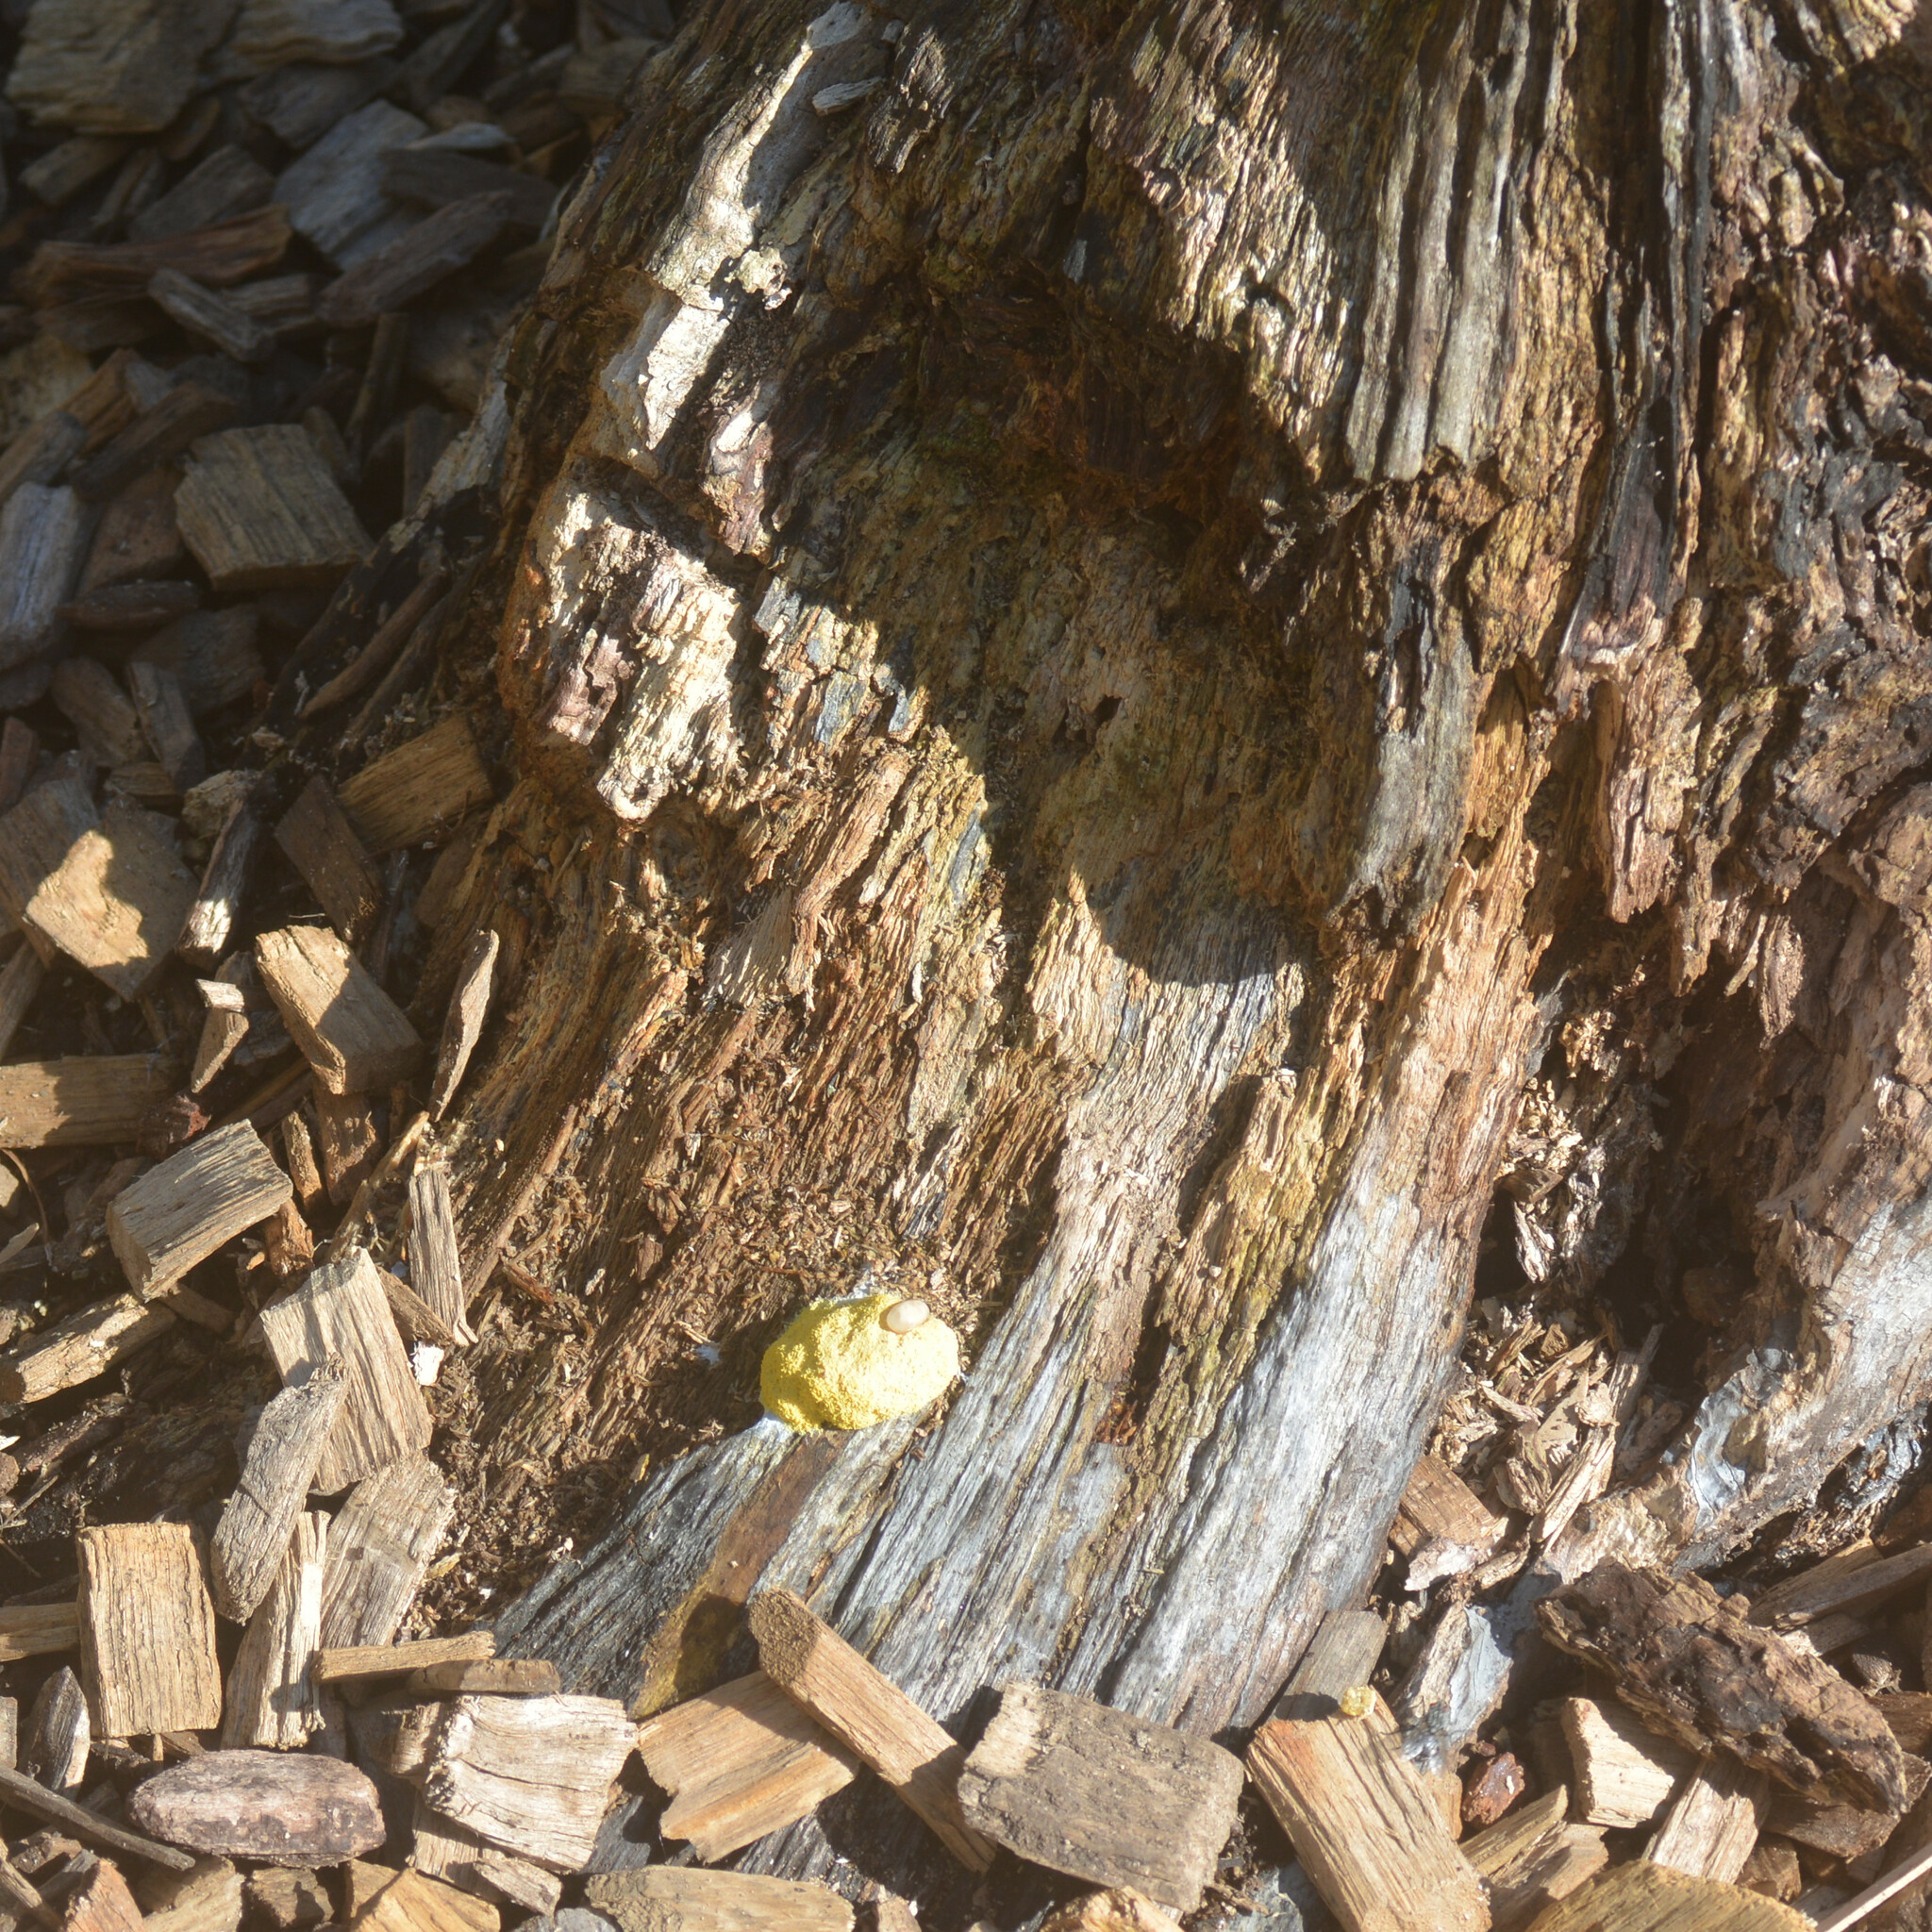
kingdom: Protozoa
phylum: Mycetozoa
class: Myxomycetes
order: Physarales
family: Physaraceae
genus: Fuligo
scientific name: Fuligo septica
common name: Dog vomit slime mold
